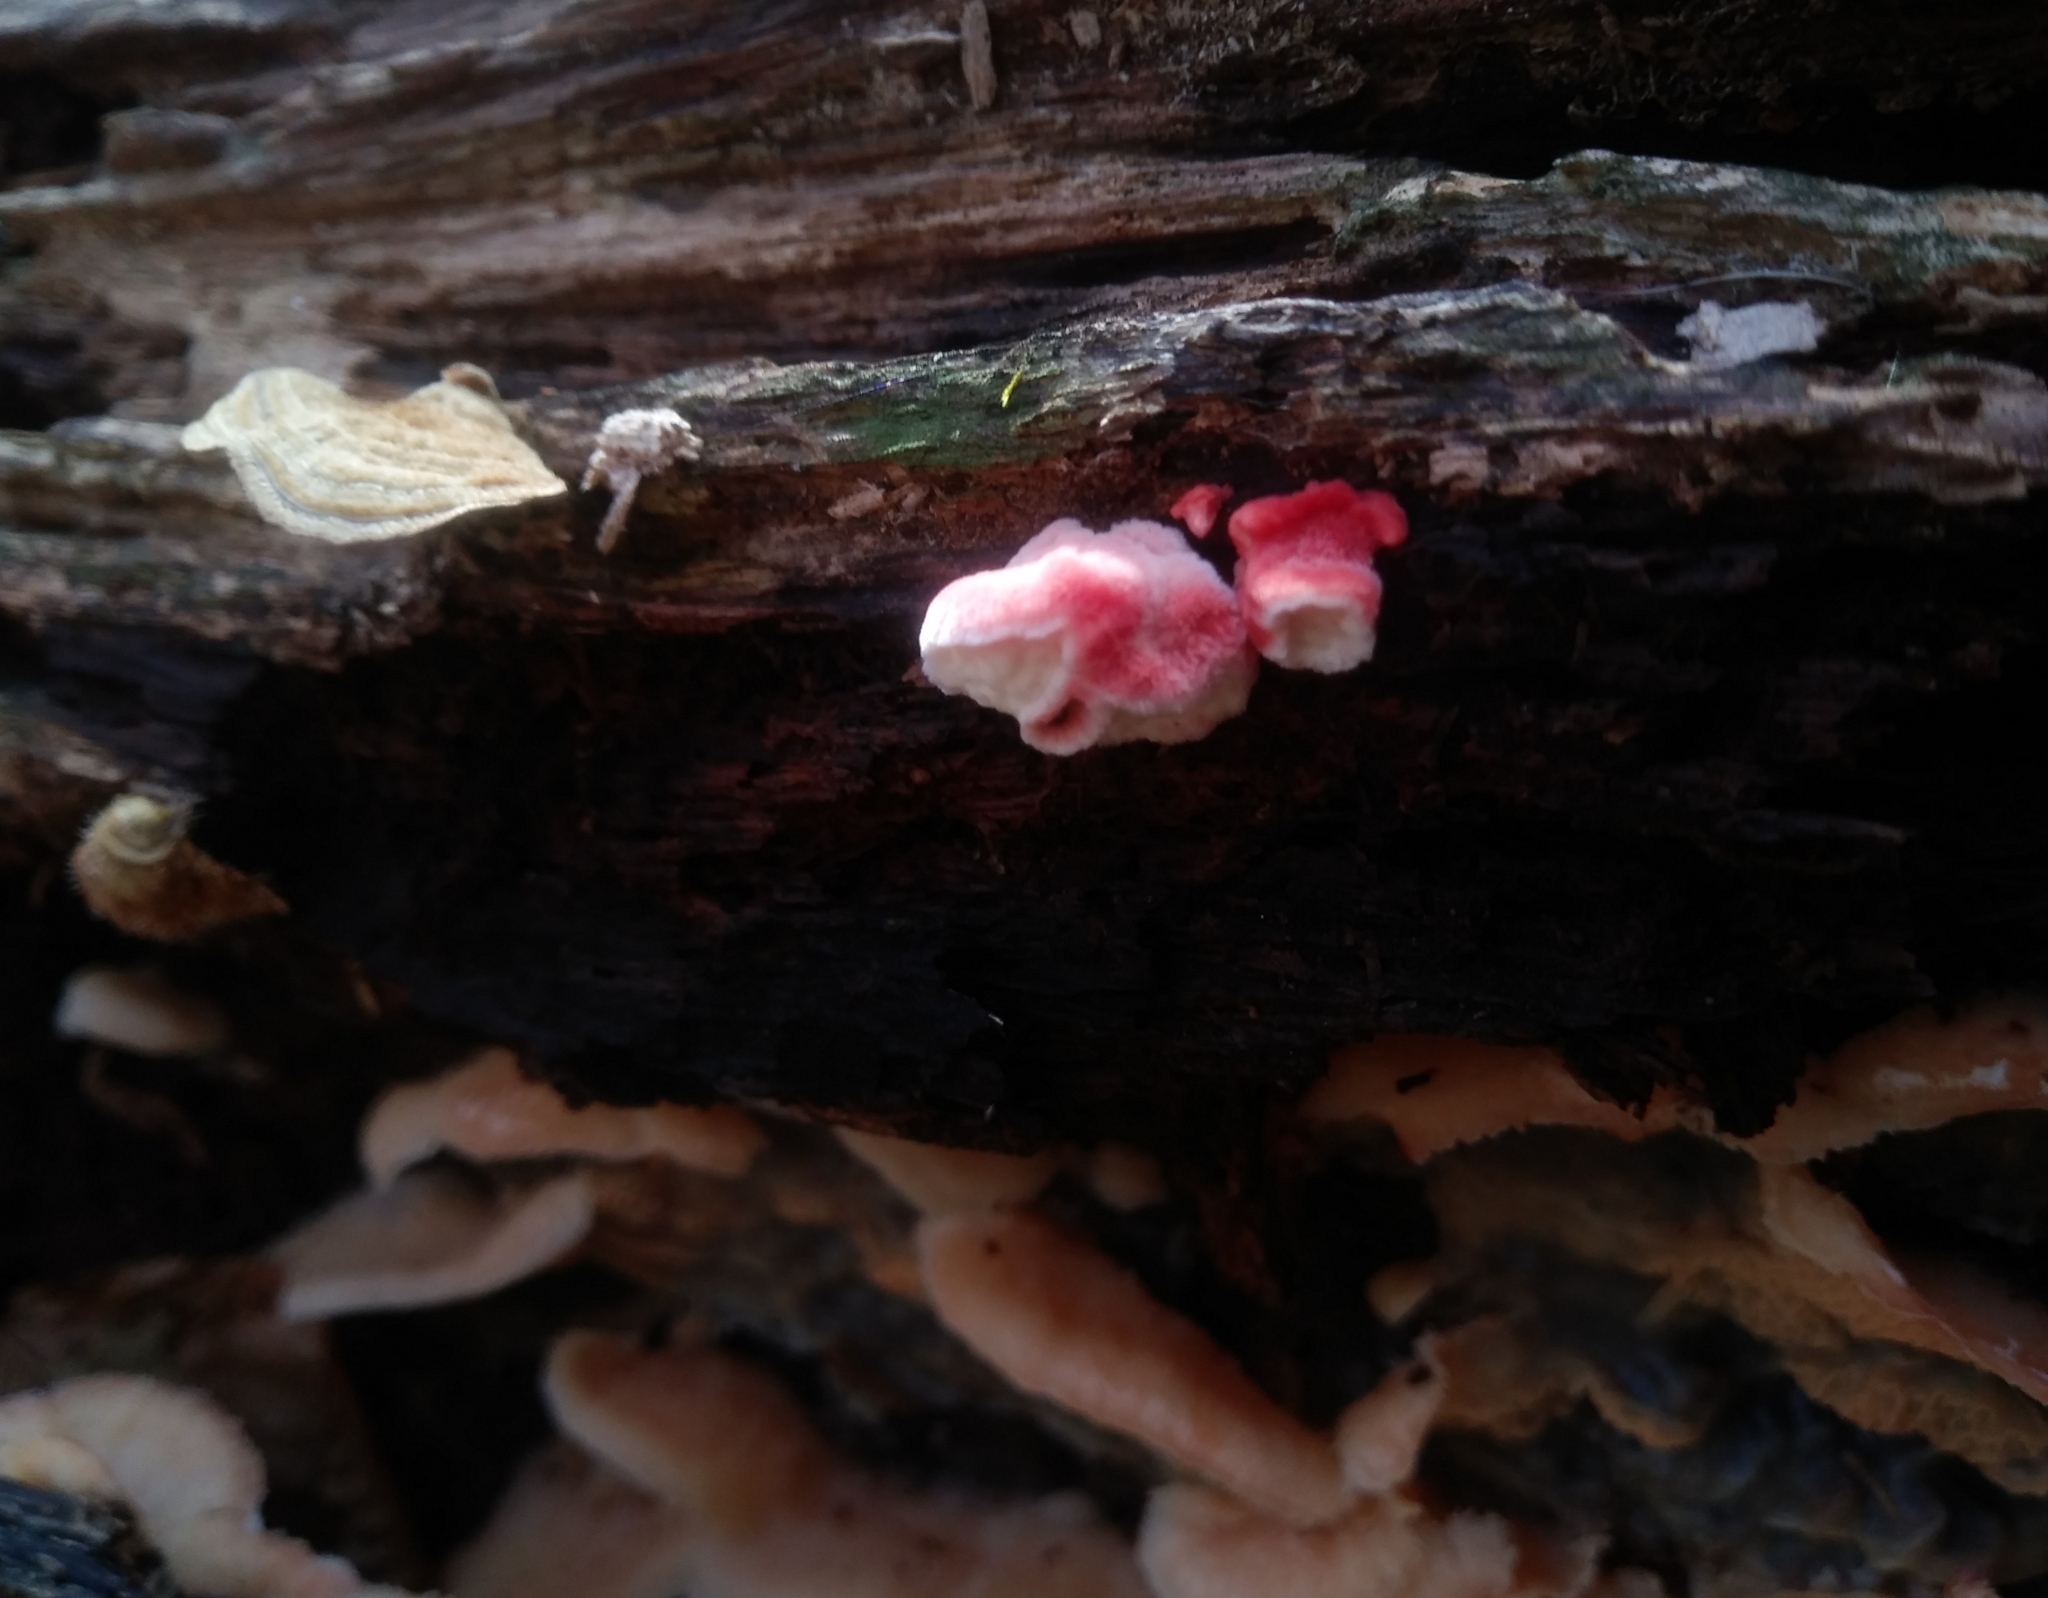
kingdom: Fungi
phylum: Basidiomycota
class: Agaricomycetes
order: Polyporales
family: Irpicaceae
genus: Byssomerulius
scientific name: Byssomerulius incarnatus
